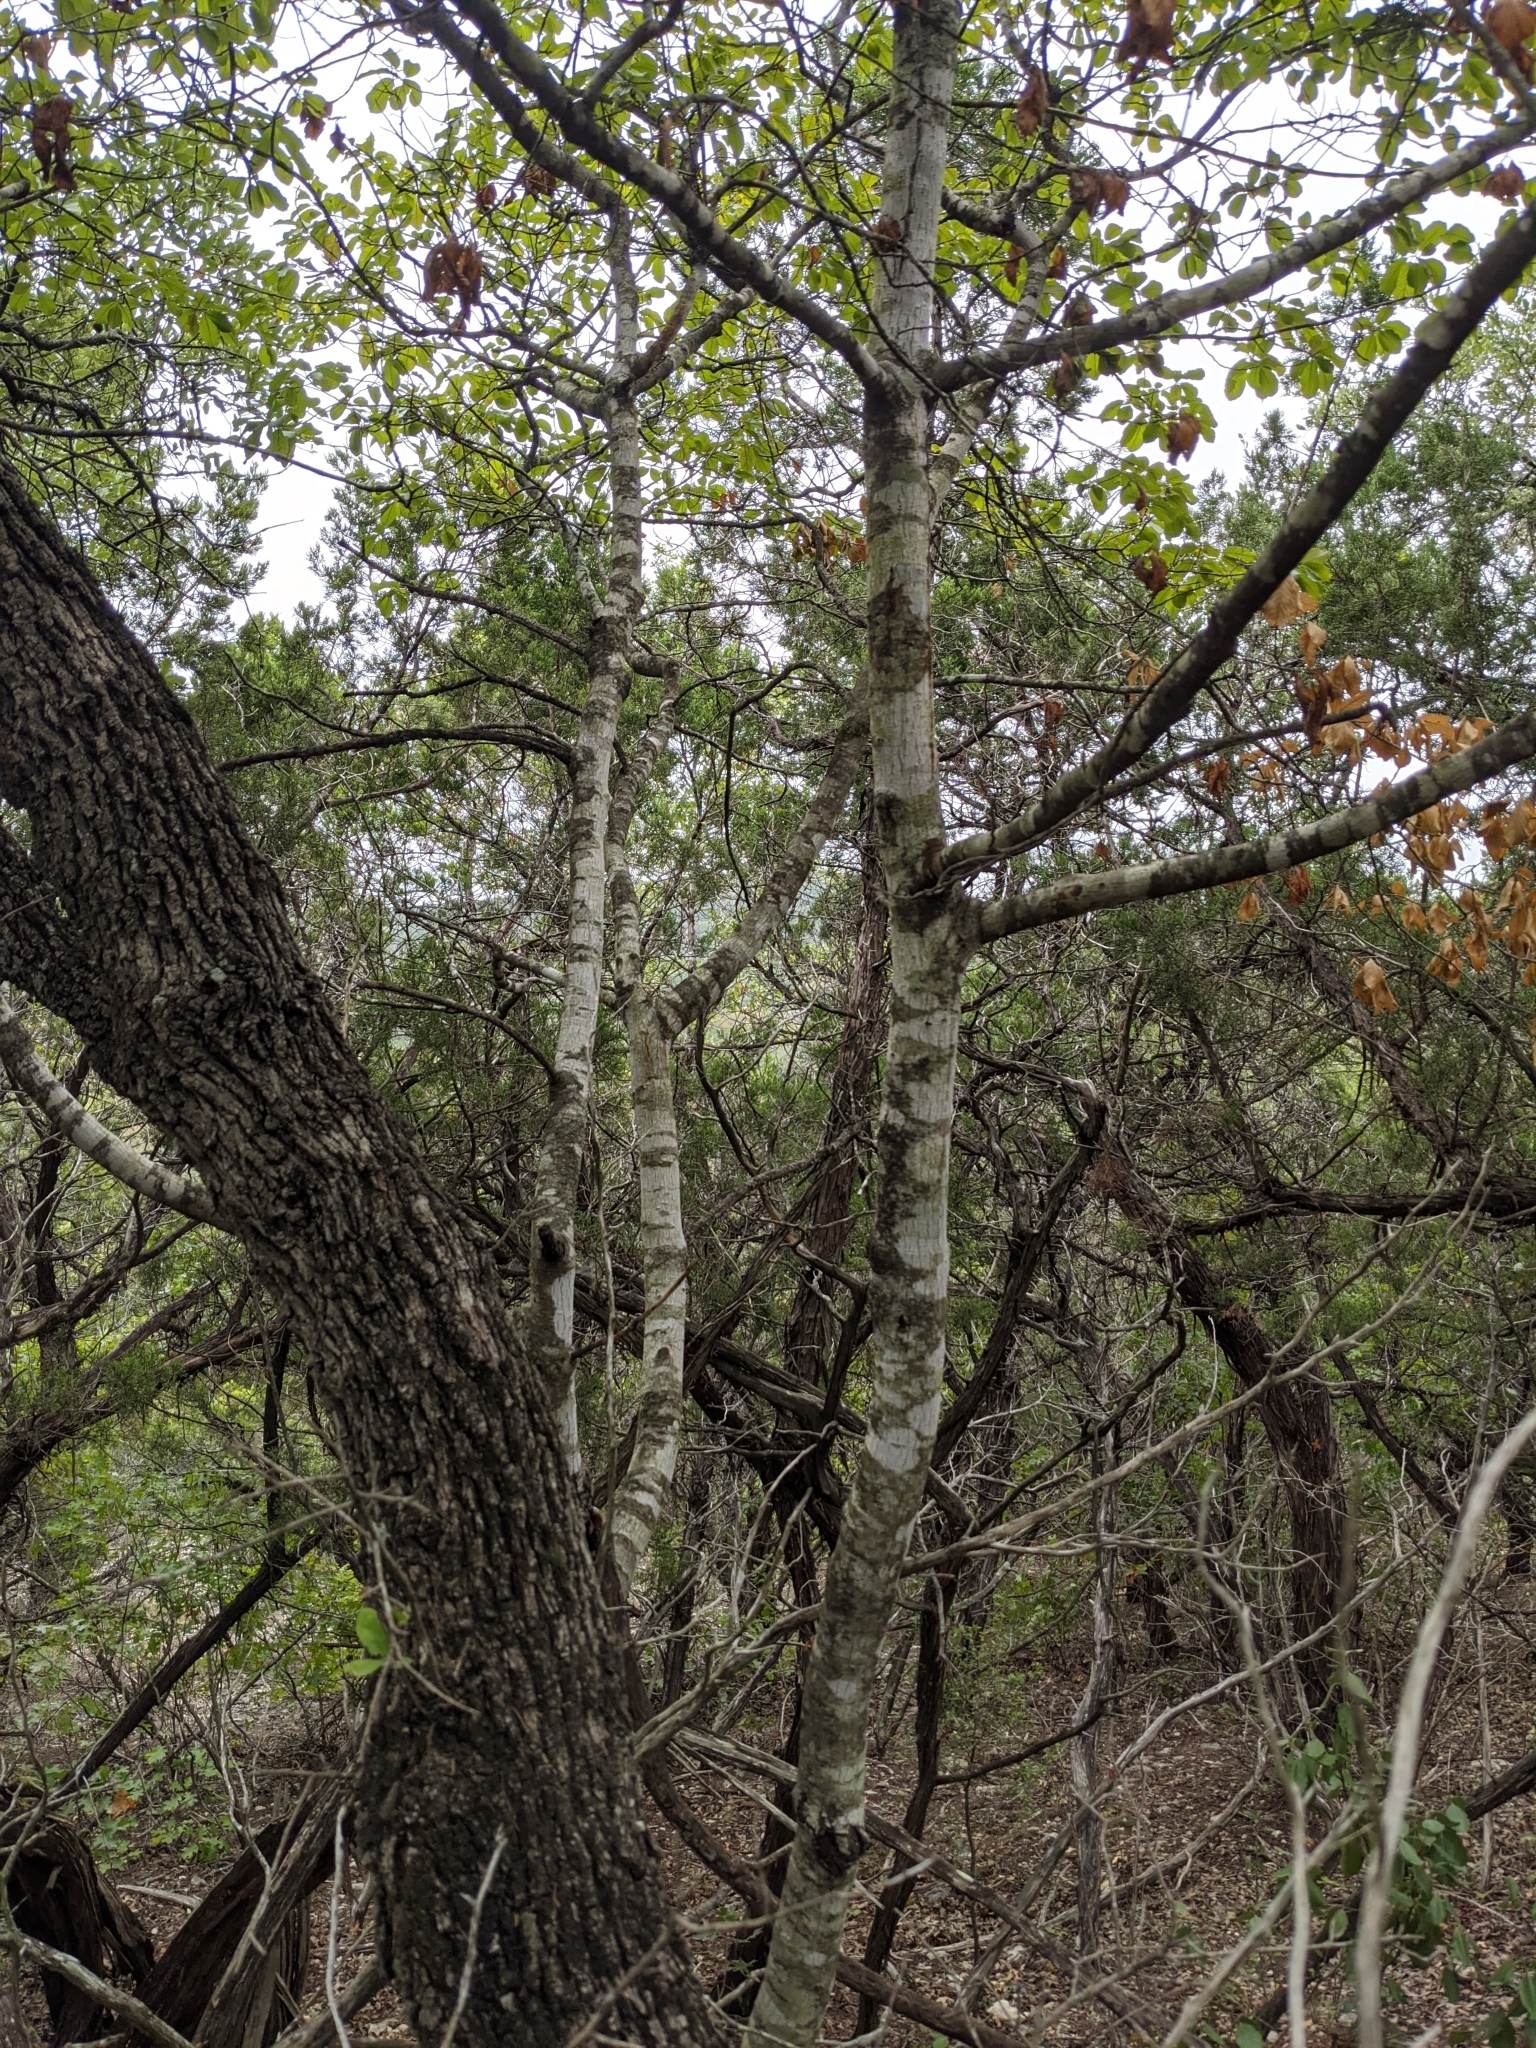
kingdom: Plantae
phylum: Tracheophyta
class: Magnoliopsida
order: Rosales
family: Rhamnaceae
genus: Frangula
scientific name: Frangula caroliniana
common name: Carolina buckthorn
